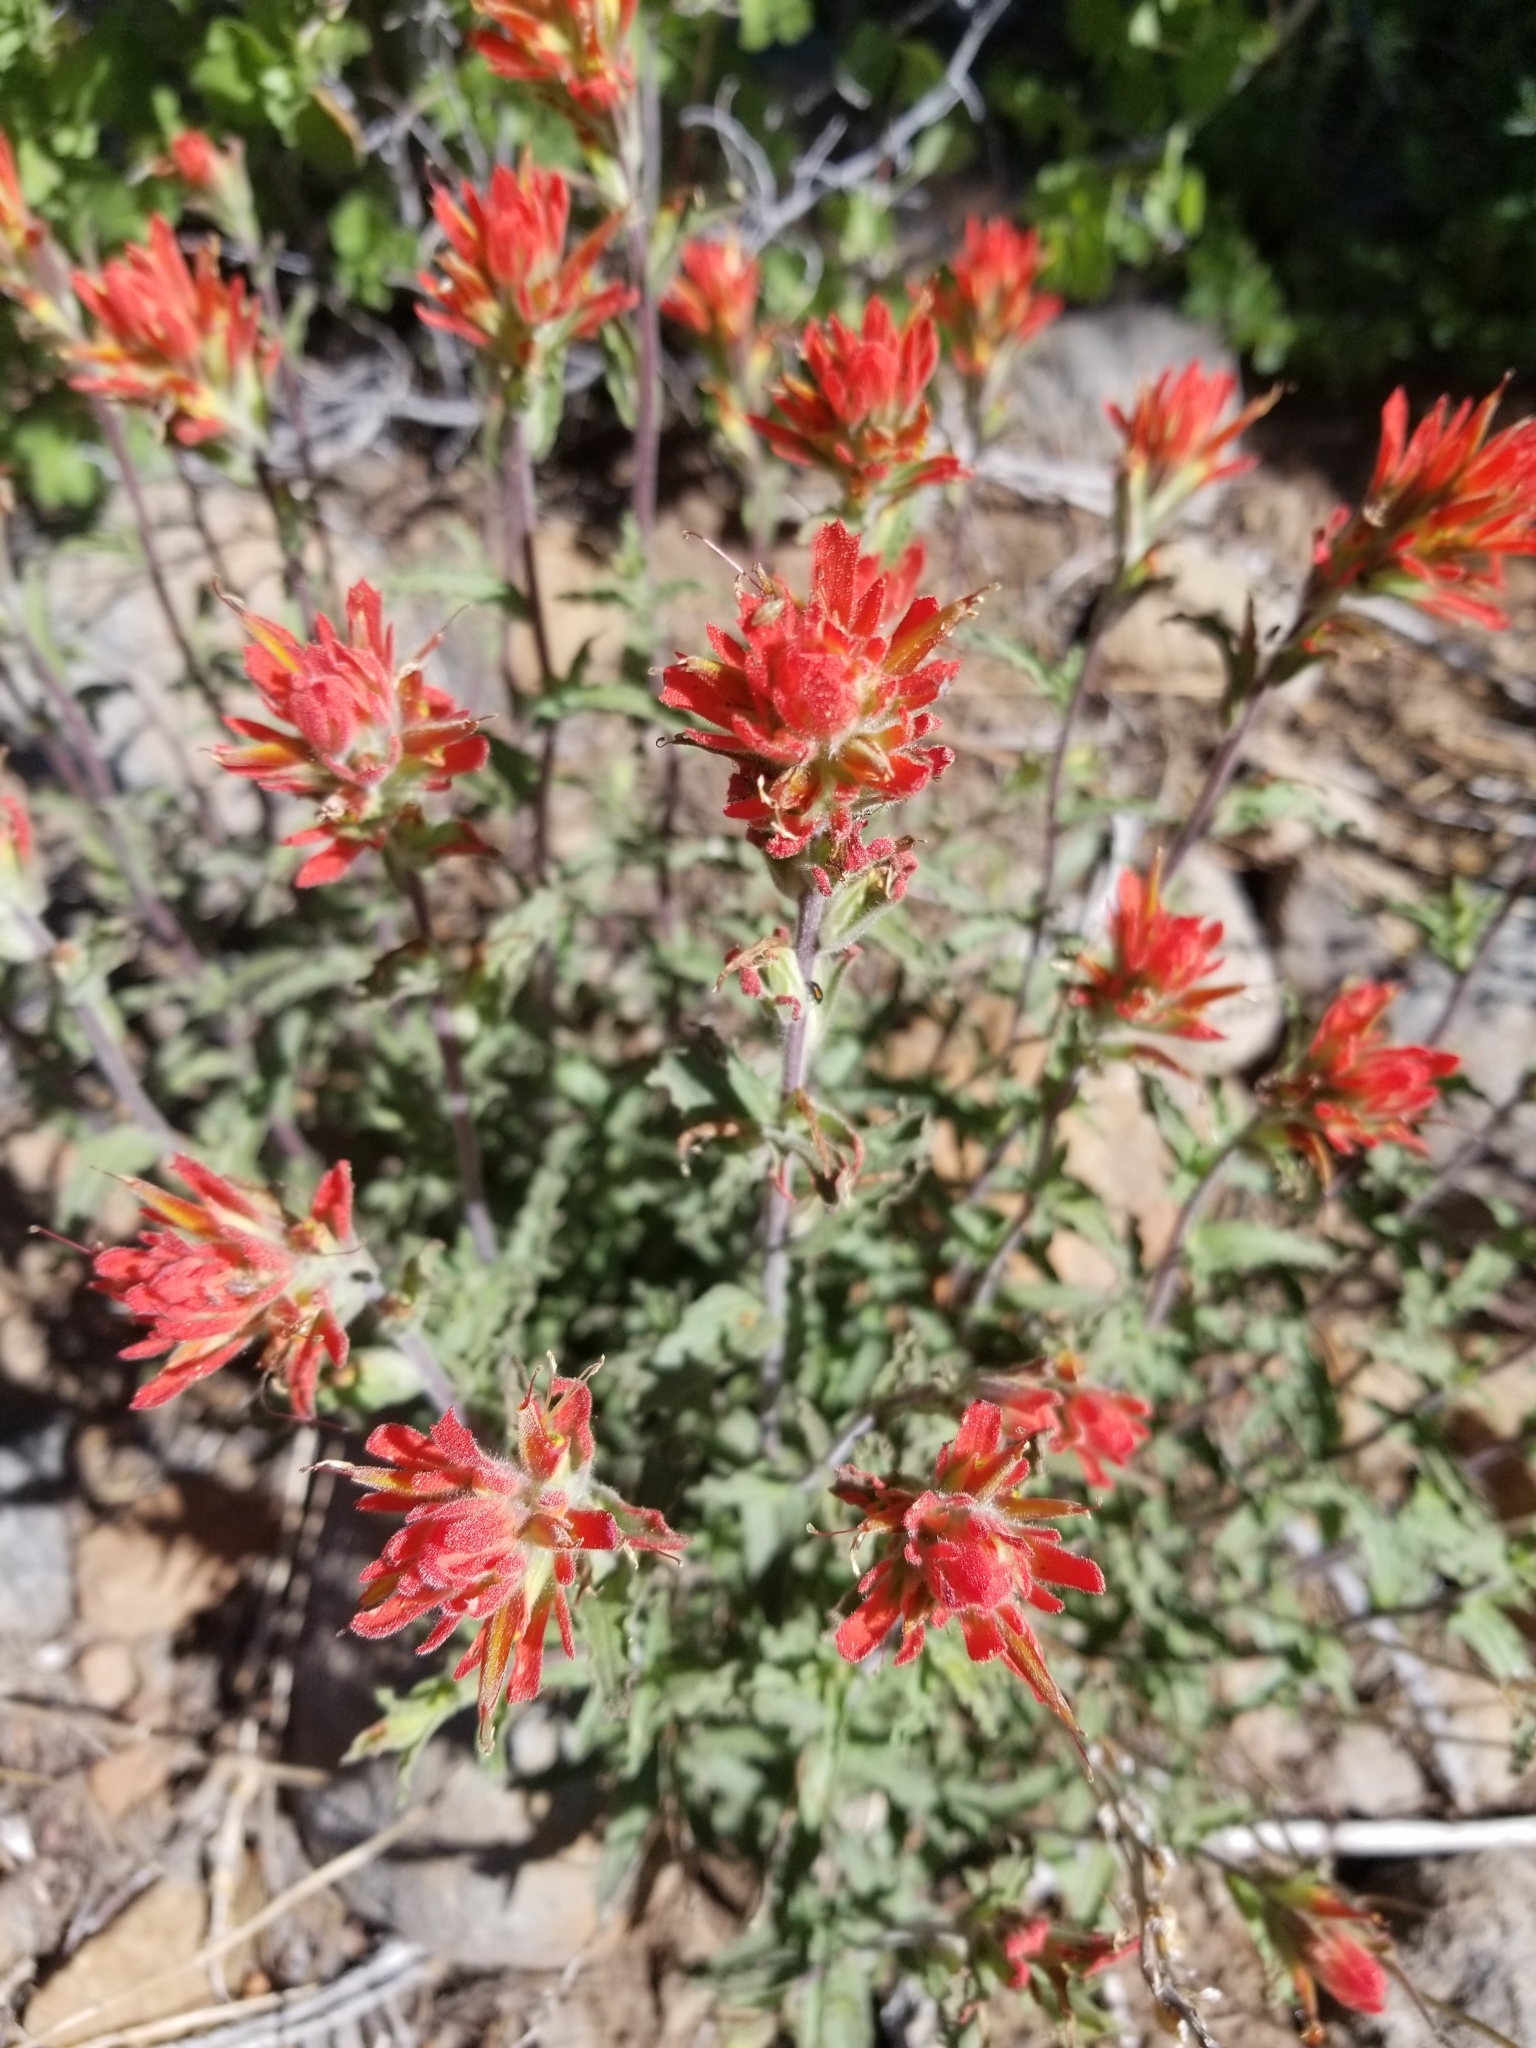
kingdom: Plantae
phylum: Tracheophyta
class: Magnoliopsida
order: Lamiales
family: Orobanchaceae
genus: Castilleja
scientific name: Castilleja applegatei
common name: Wavy-leaf paintbrush
